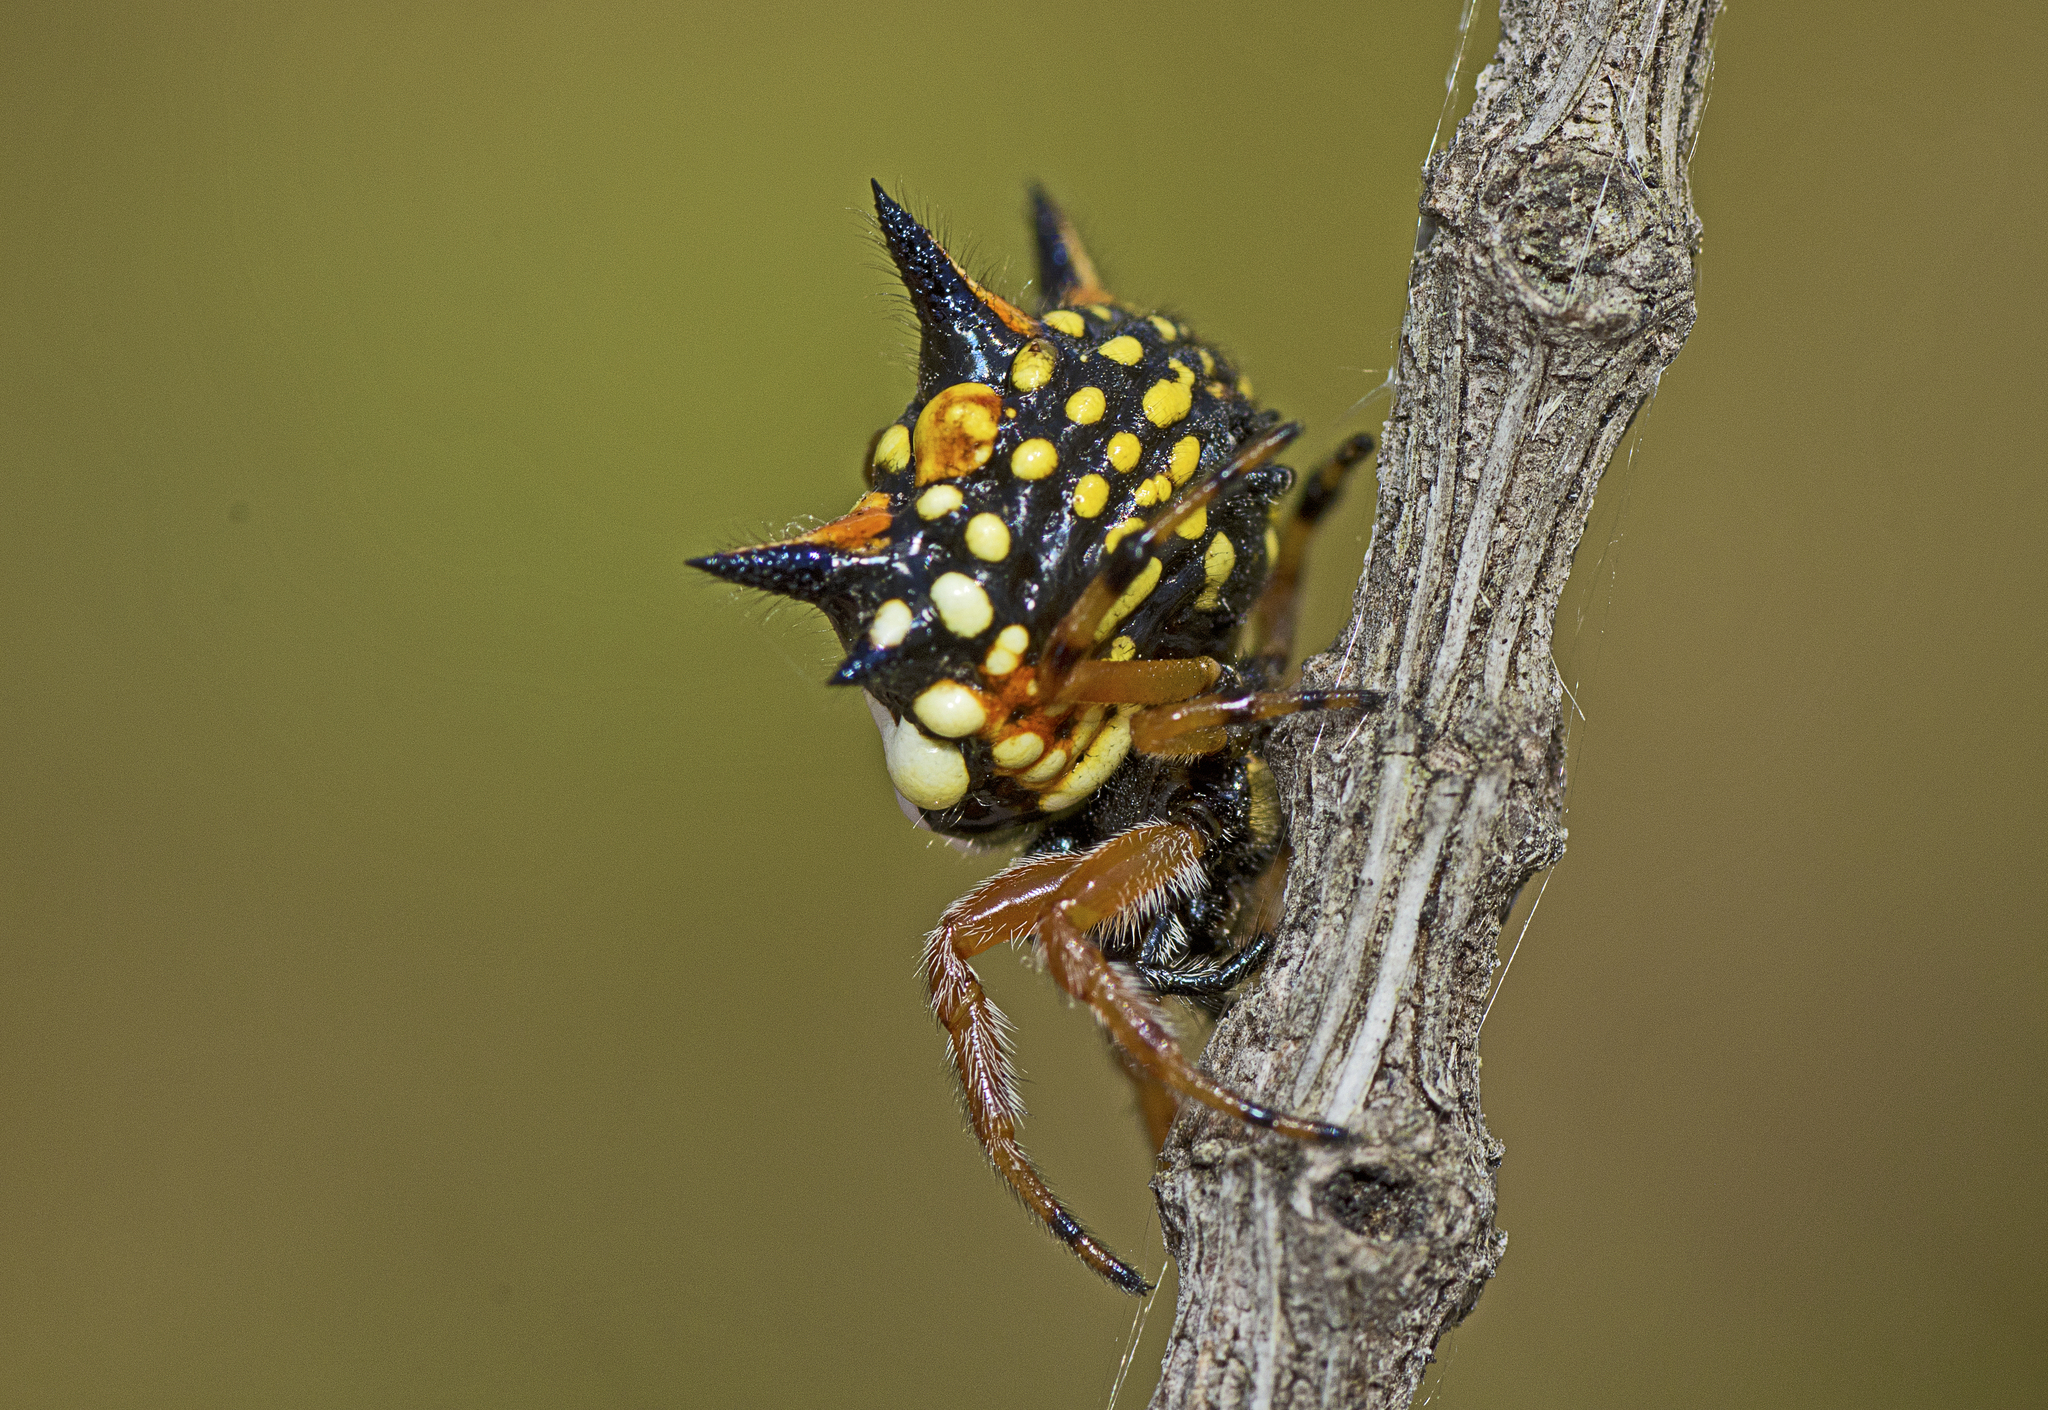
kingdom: Animalia
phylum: Arthropoda
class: Arachnida
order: Araneae
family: Araneidae
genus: Austracantha
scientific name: Austracantha minax
